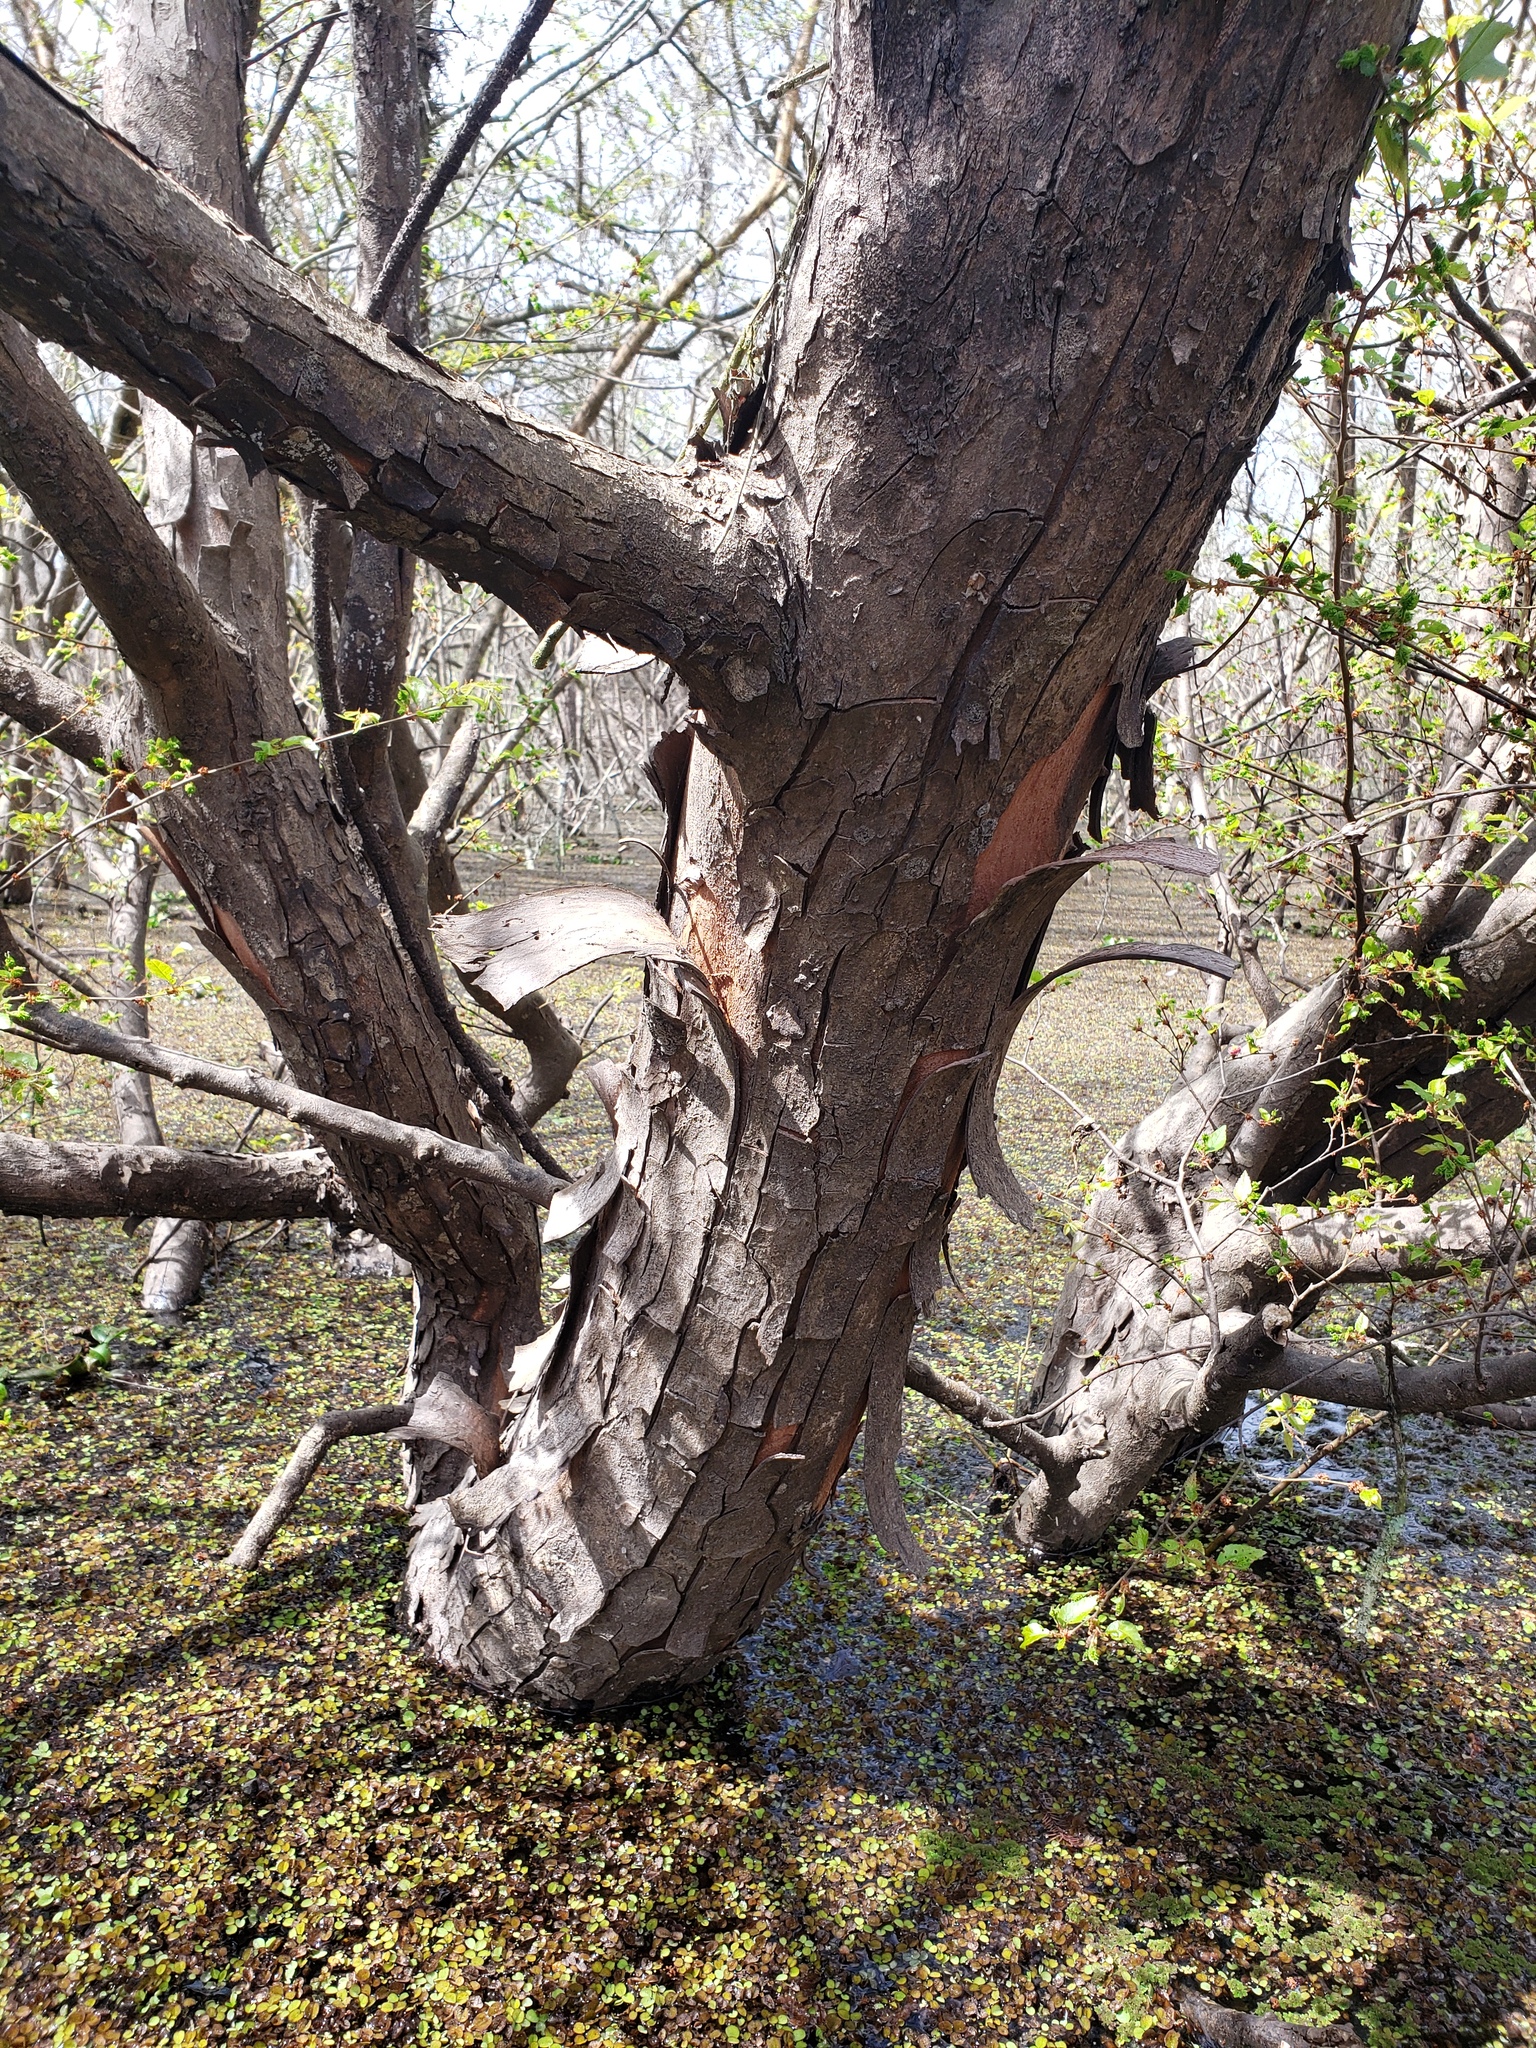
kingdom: Plantae
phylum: Tracheophyta
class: Magnoliopsida
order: Rosales
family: Ulmaceae
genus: Planera
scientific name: Planera aquatica
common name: Water-elm
